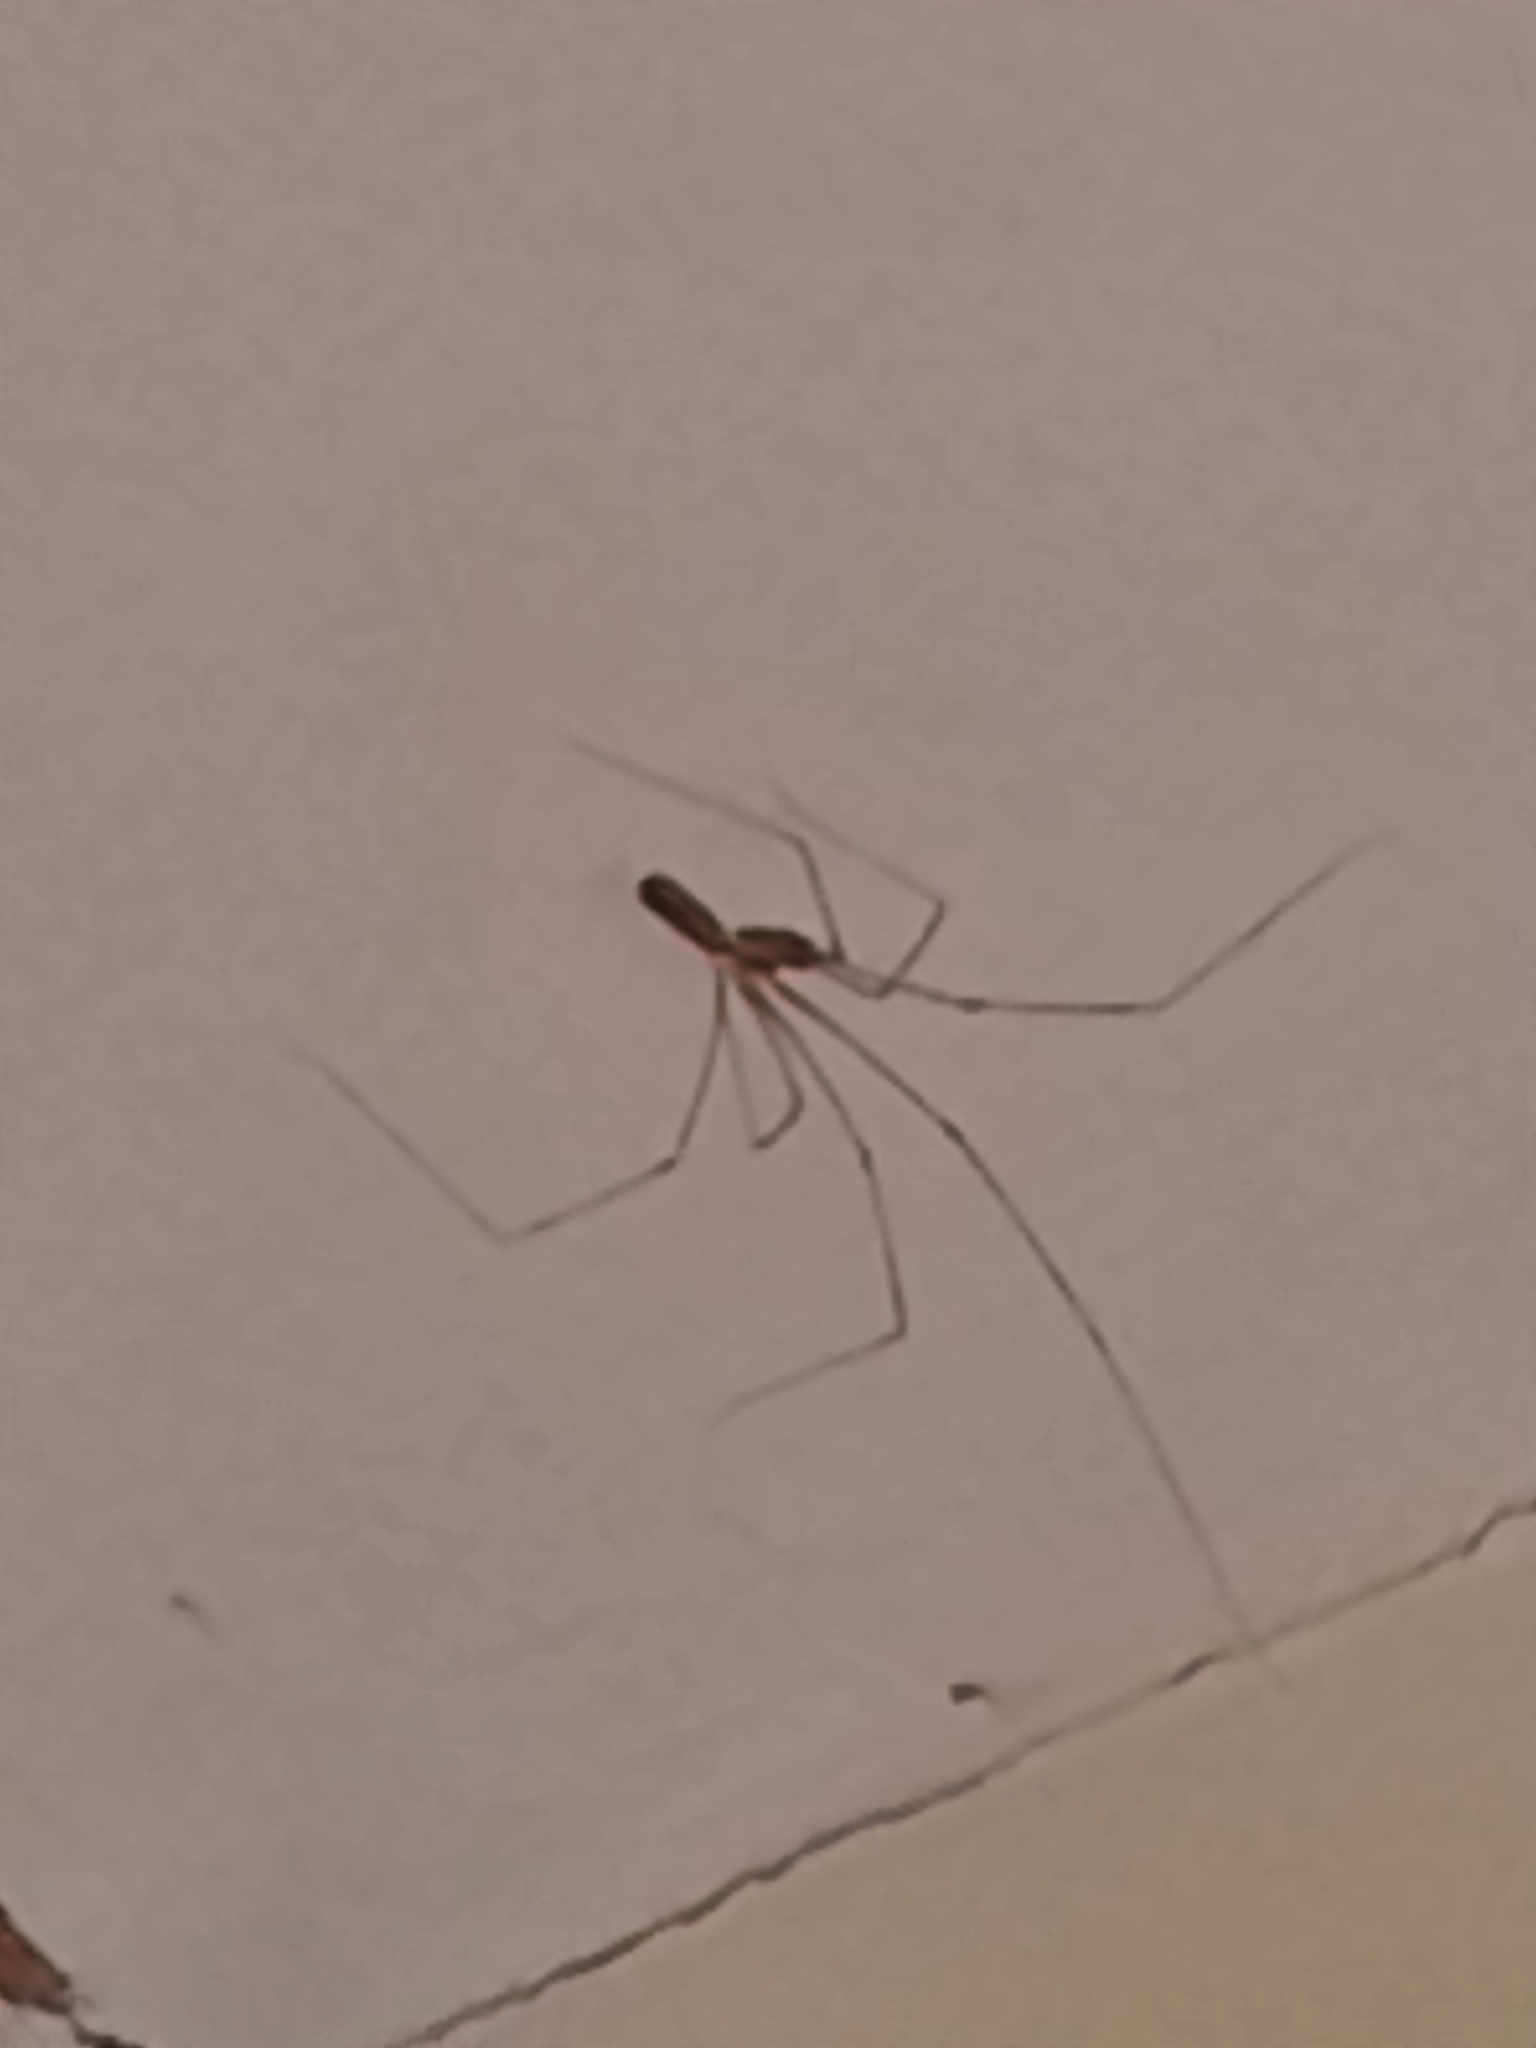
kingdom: Animalia
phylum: Arthropoda
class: Arachnida
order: Araneae
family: Pholcidae
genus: Pholcus
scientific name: Pholcus phalangioides
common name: Longbodied cellar spider
